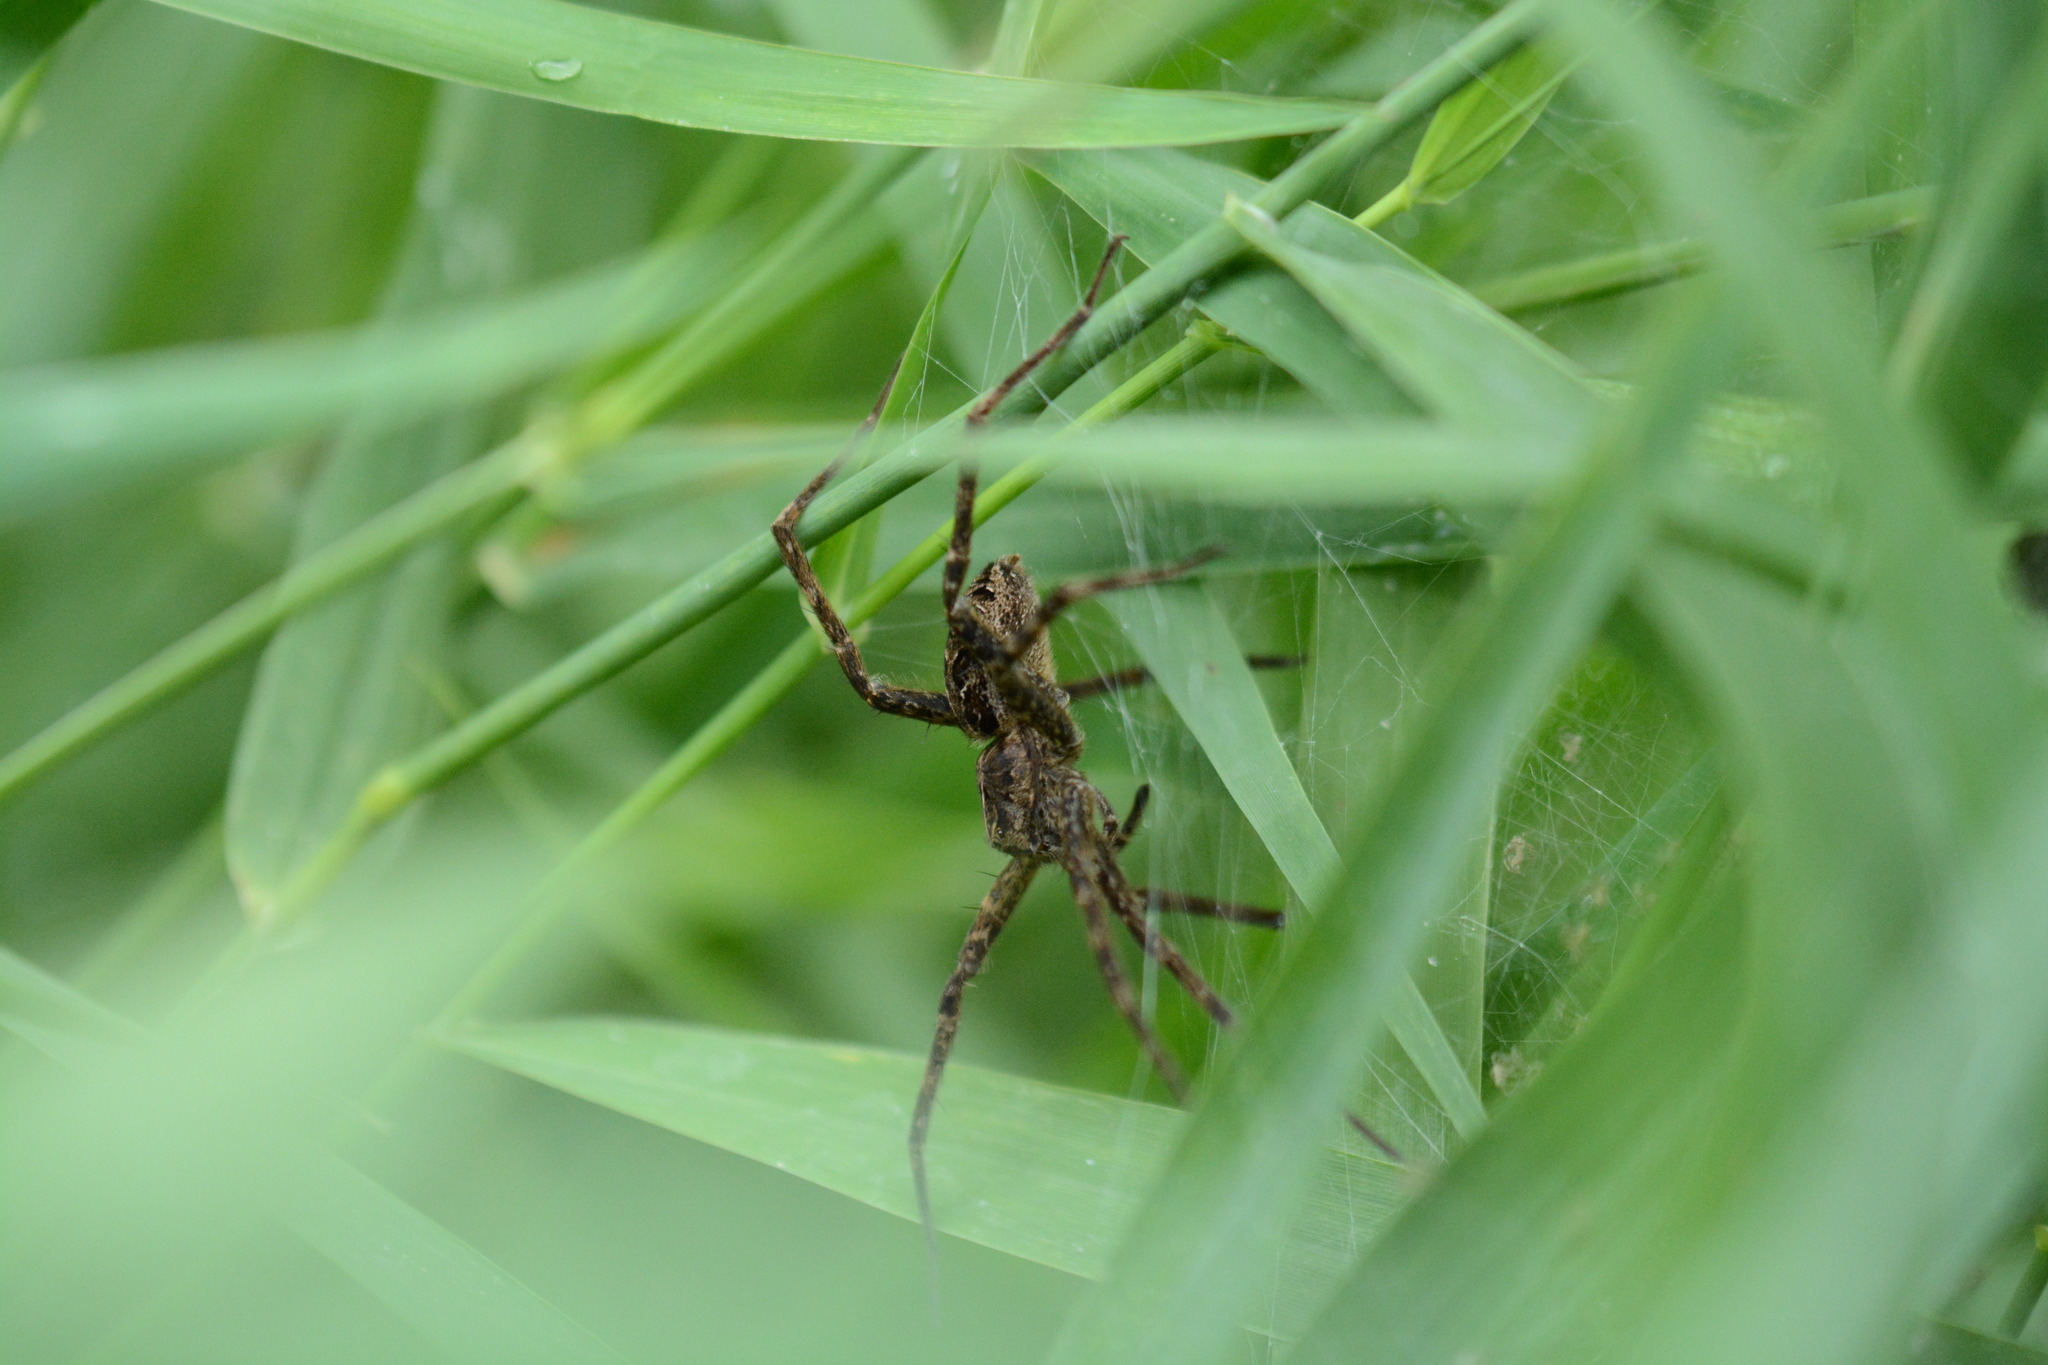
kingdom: Animalia
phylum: Arthropoda
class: Arachnida
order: Araneae
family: Pisauridae
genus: Dolomedes
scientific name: Dolomedes scriptus
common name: Striped fishing spider
